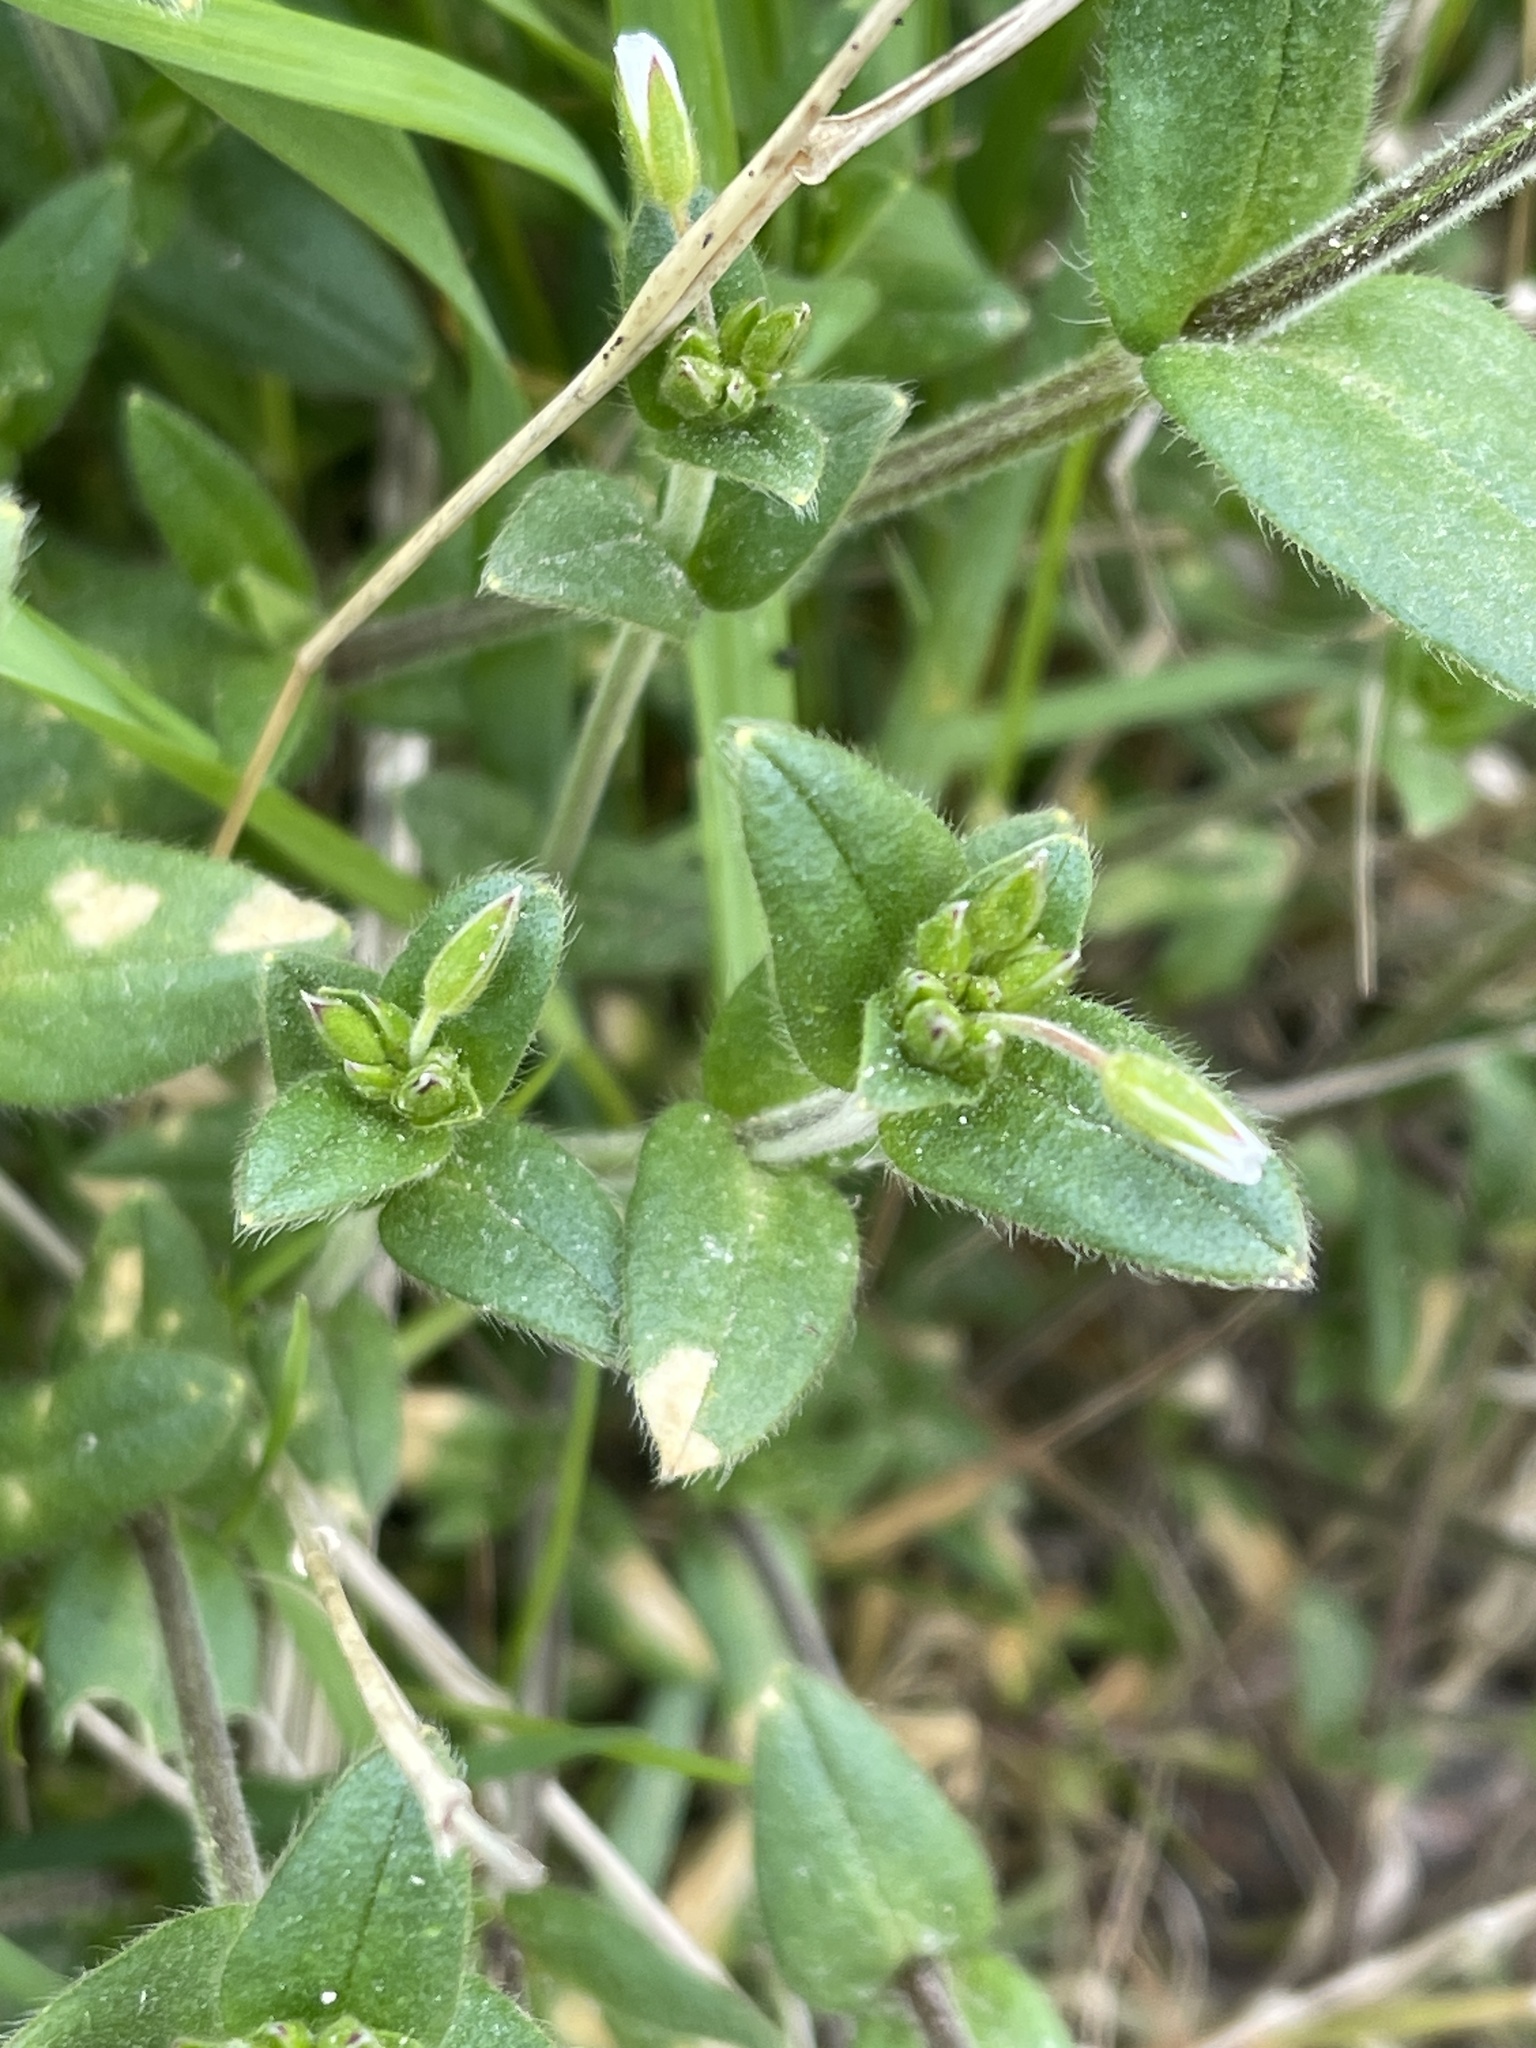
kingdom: Plantae
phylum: Tracheophyta
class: Magnoliopsida
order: Caryophyllales
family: Caryophyllaceae
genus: Cerastium
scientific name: Cerastium fontanum
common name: Common mouse-ear
